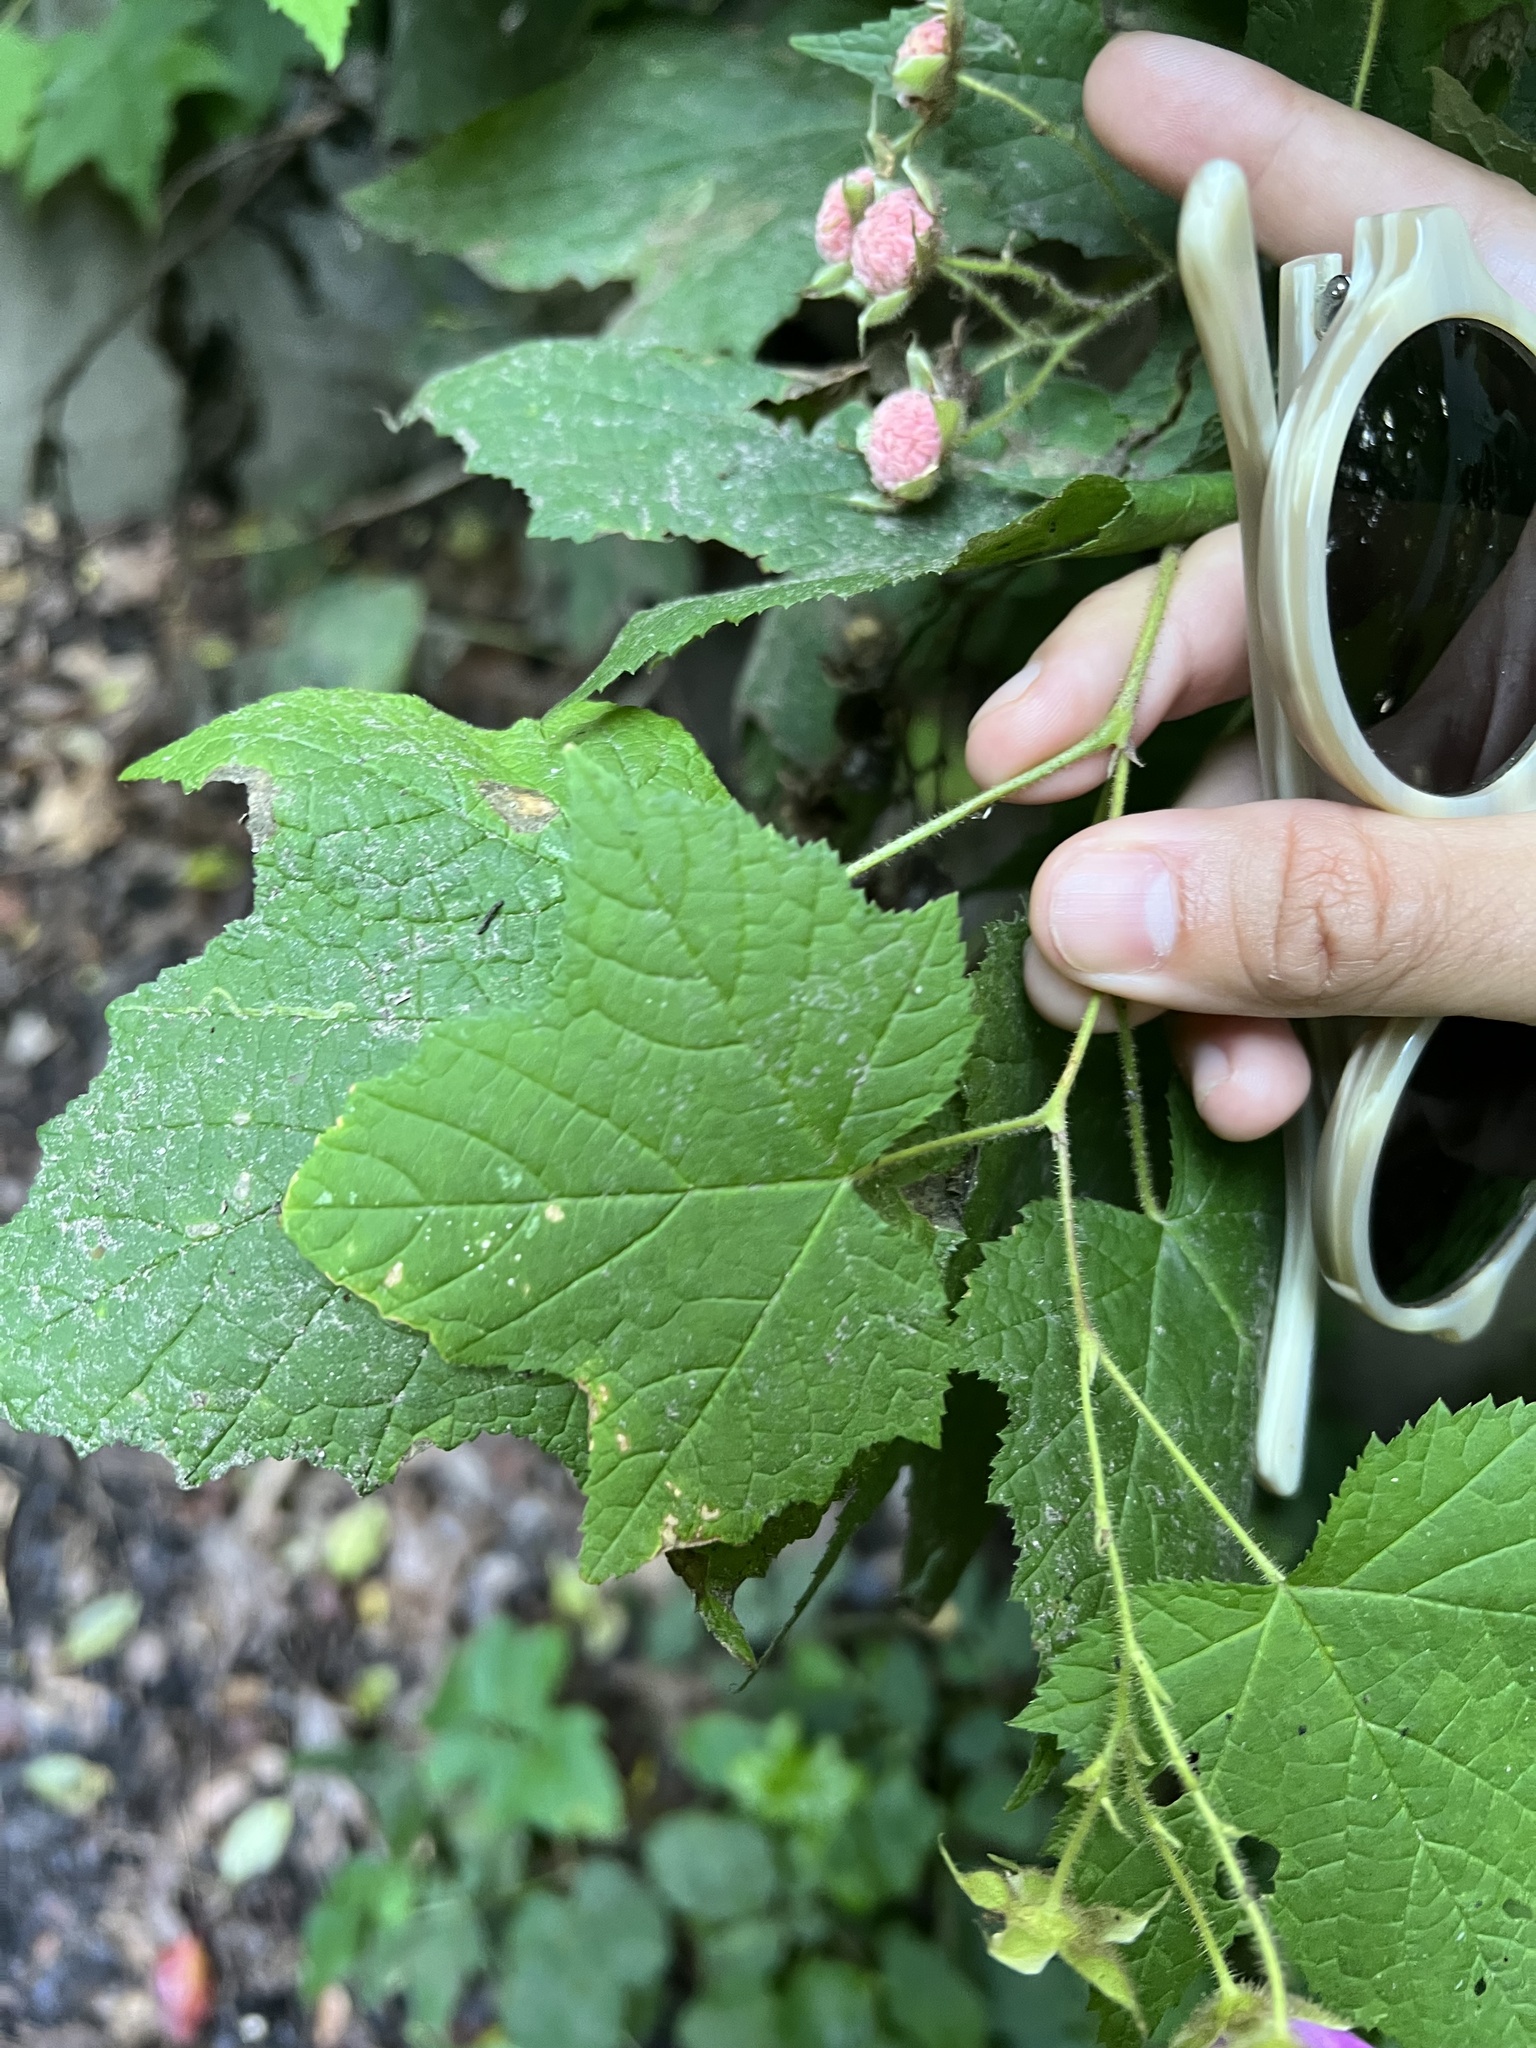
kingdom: Plantae
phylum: Tracheophyta
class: Magnoliopsida
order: Rosales
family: Rosaceae
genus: Rubus
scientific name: Rubus odoratus
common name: Purple-flowered raspberry
